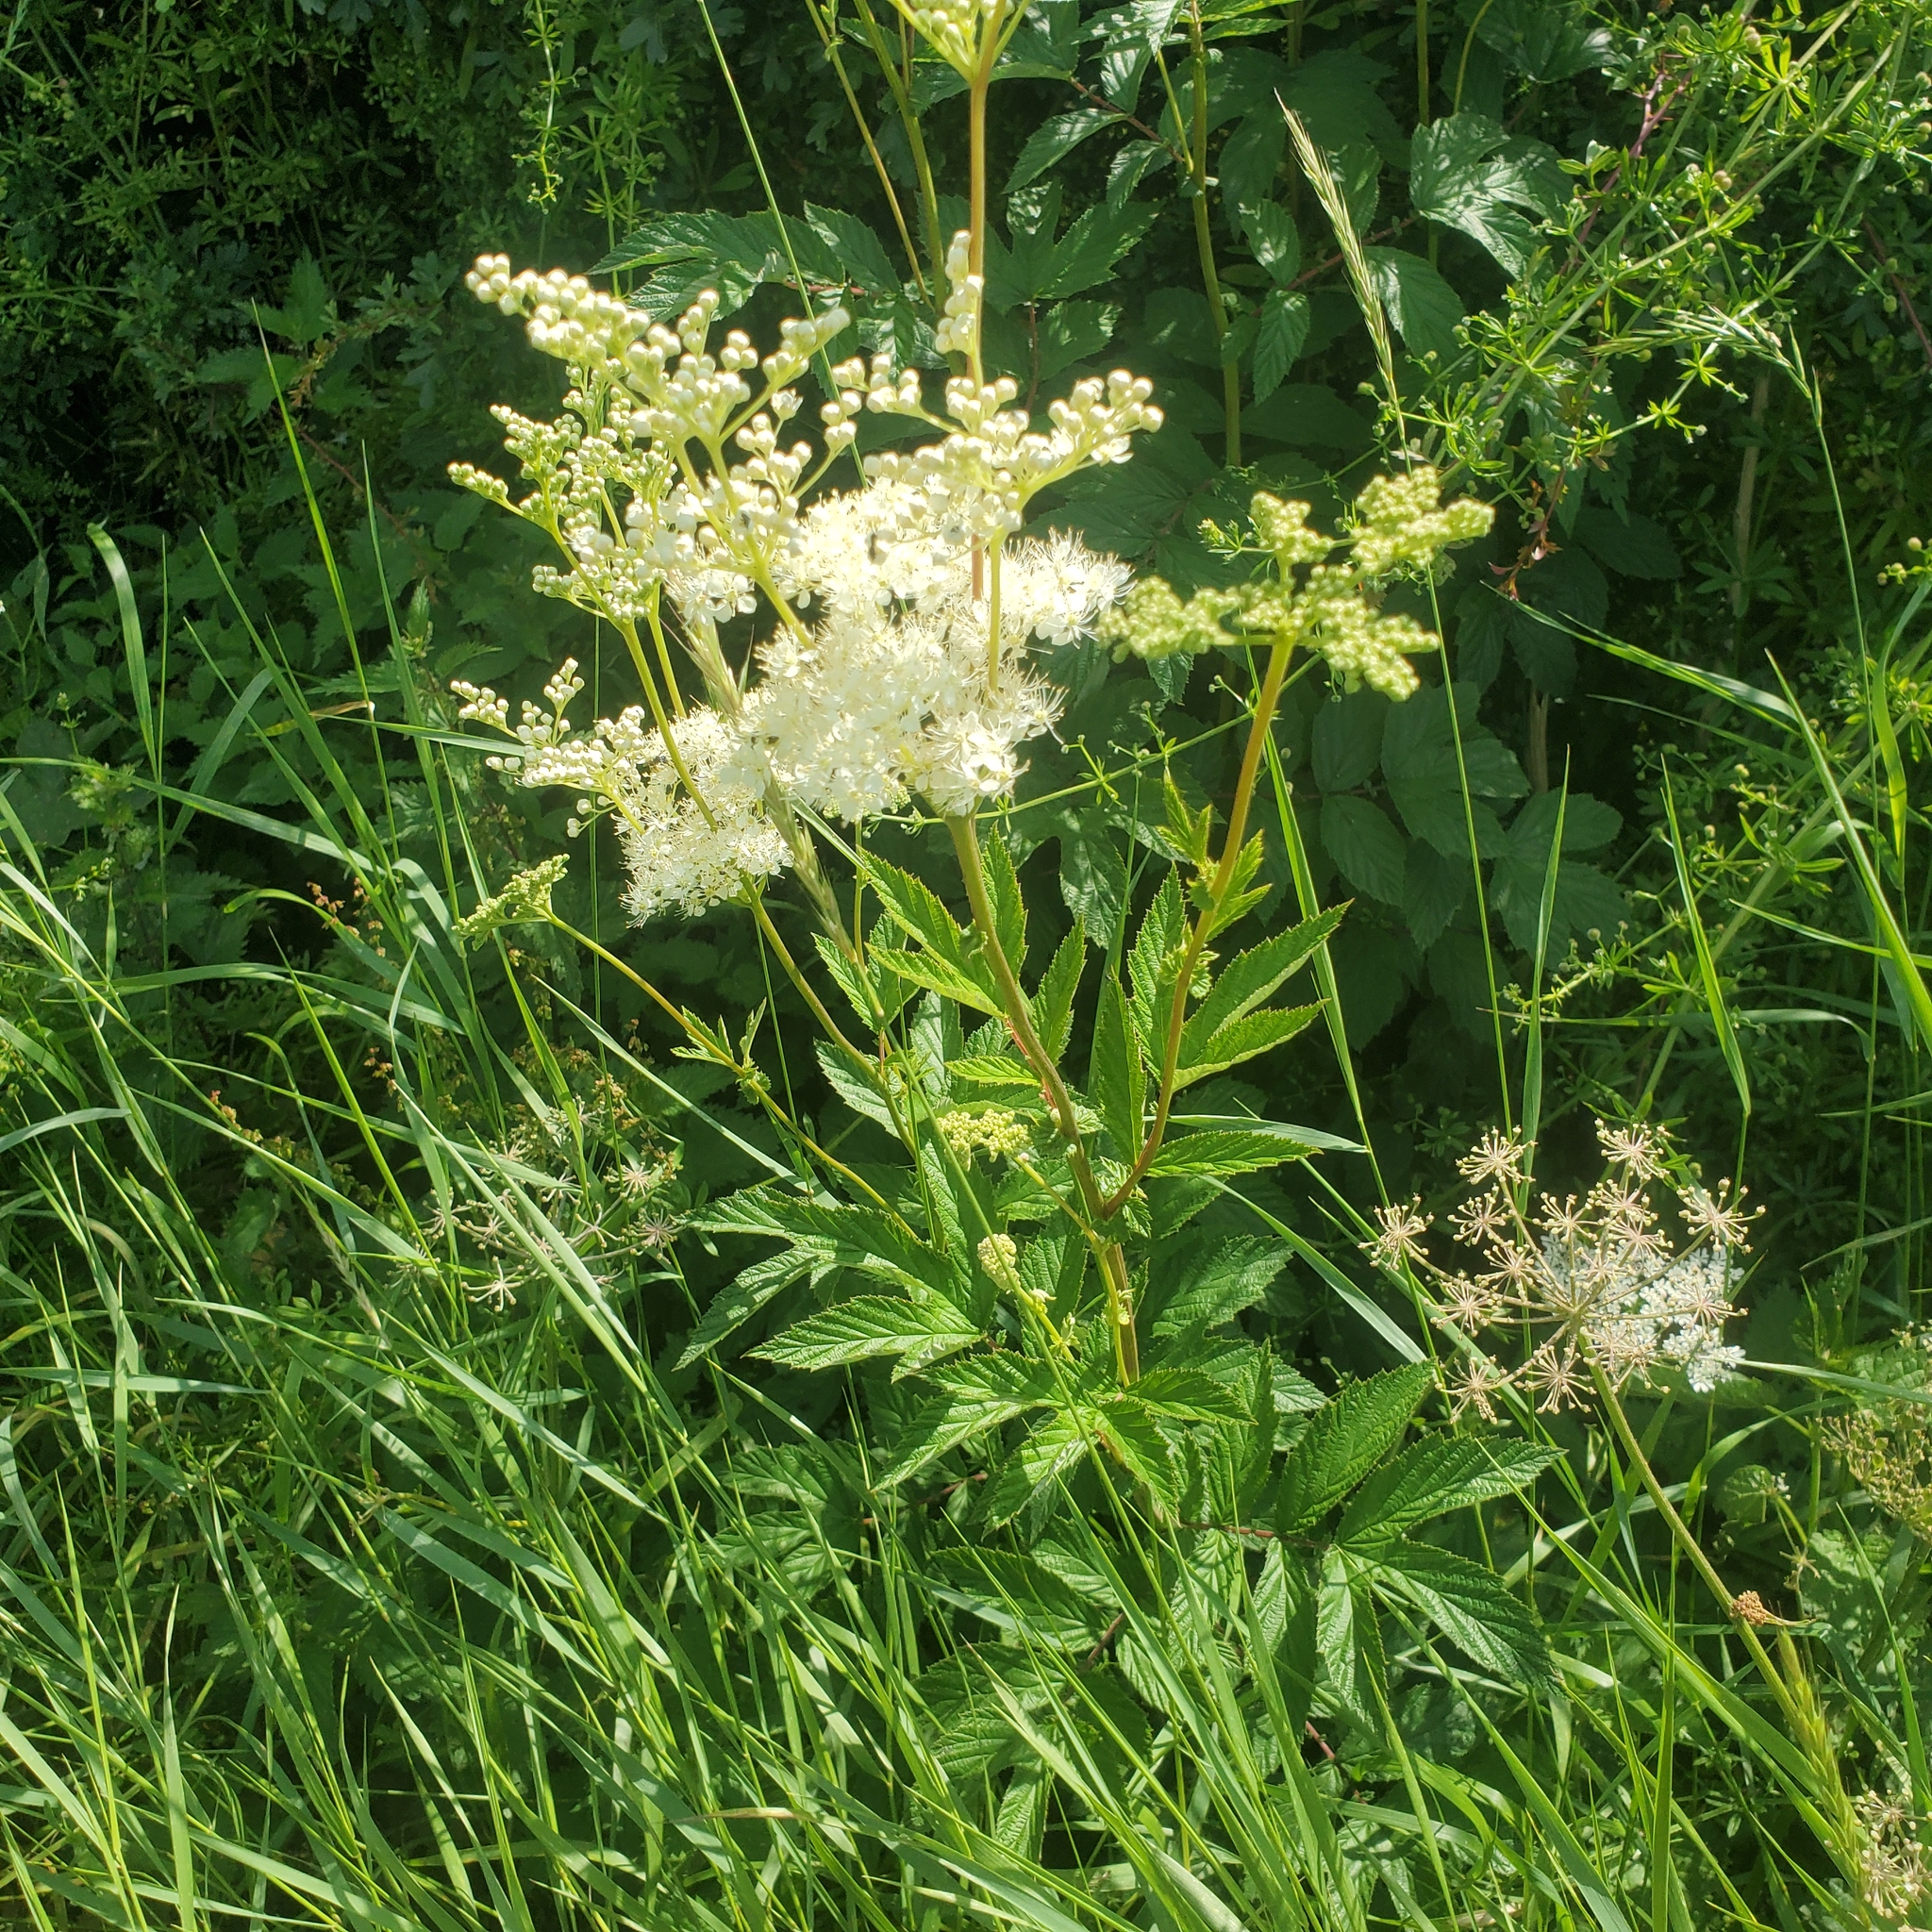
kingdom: Plantae
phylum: Tracheophyta
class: Magnoliopsida
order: Rosales
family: Rosaceae
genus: Filipendula
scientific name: Filipendula ulmaria
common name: Meadowsweet
